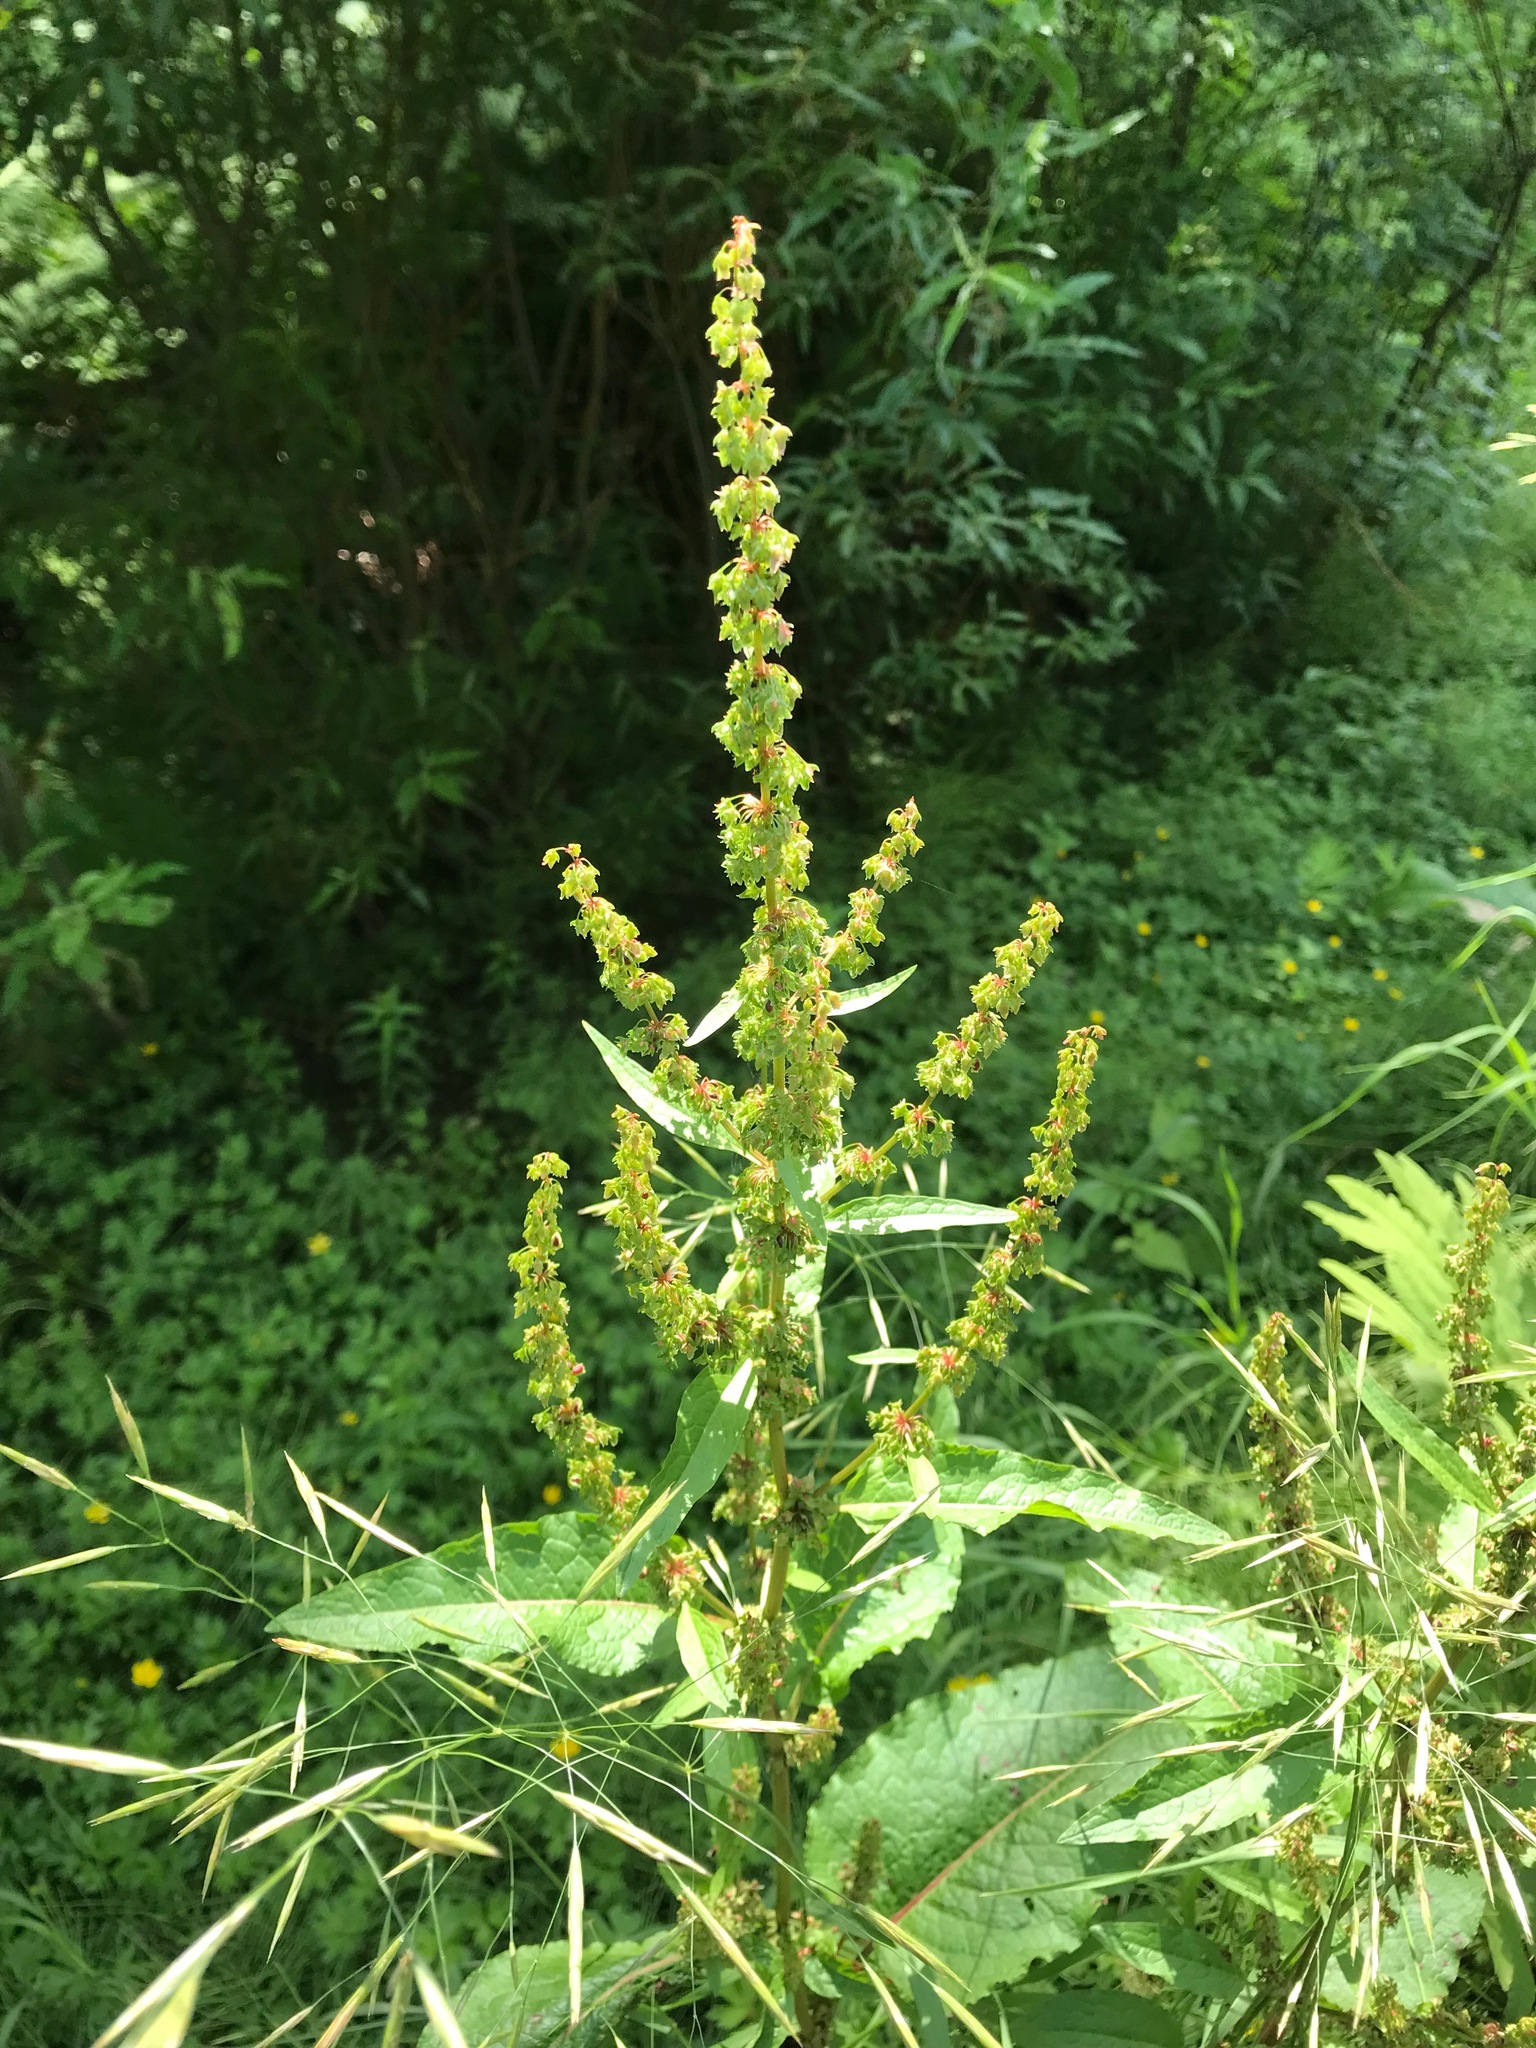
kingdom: Plantae
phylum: Tracheophyta
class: Magnoliopsida
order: Caryophyllales
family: Polygonaceae
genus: Rumex
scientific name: Rumex obtusifolius
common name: Bitter dock
